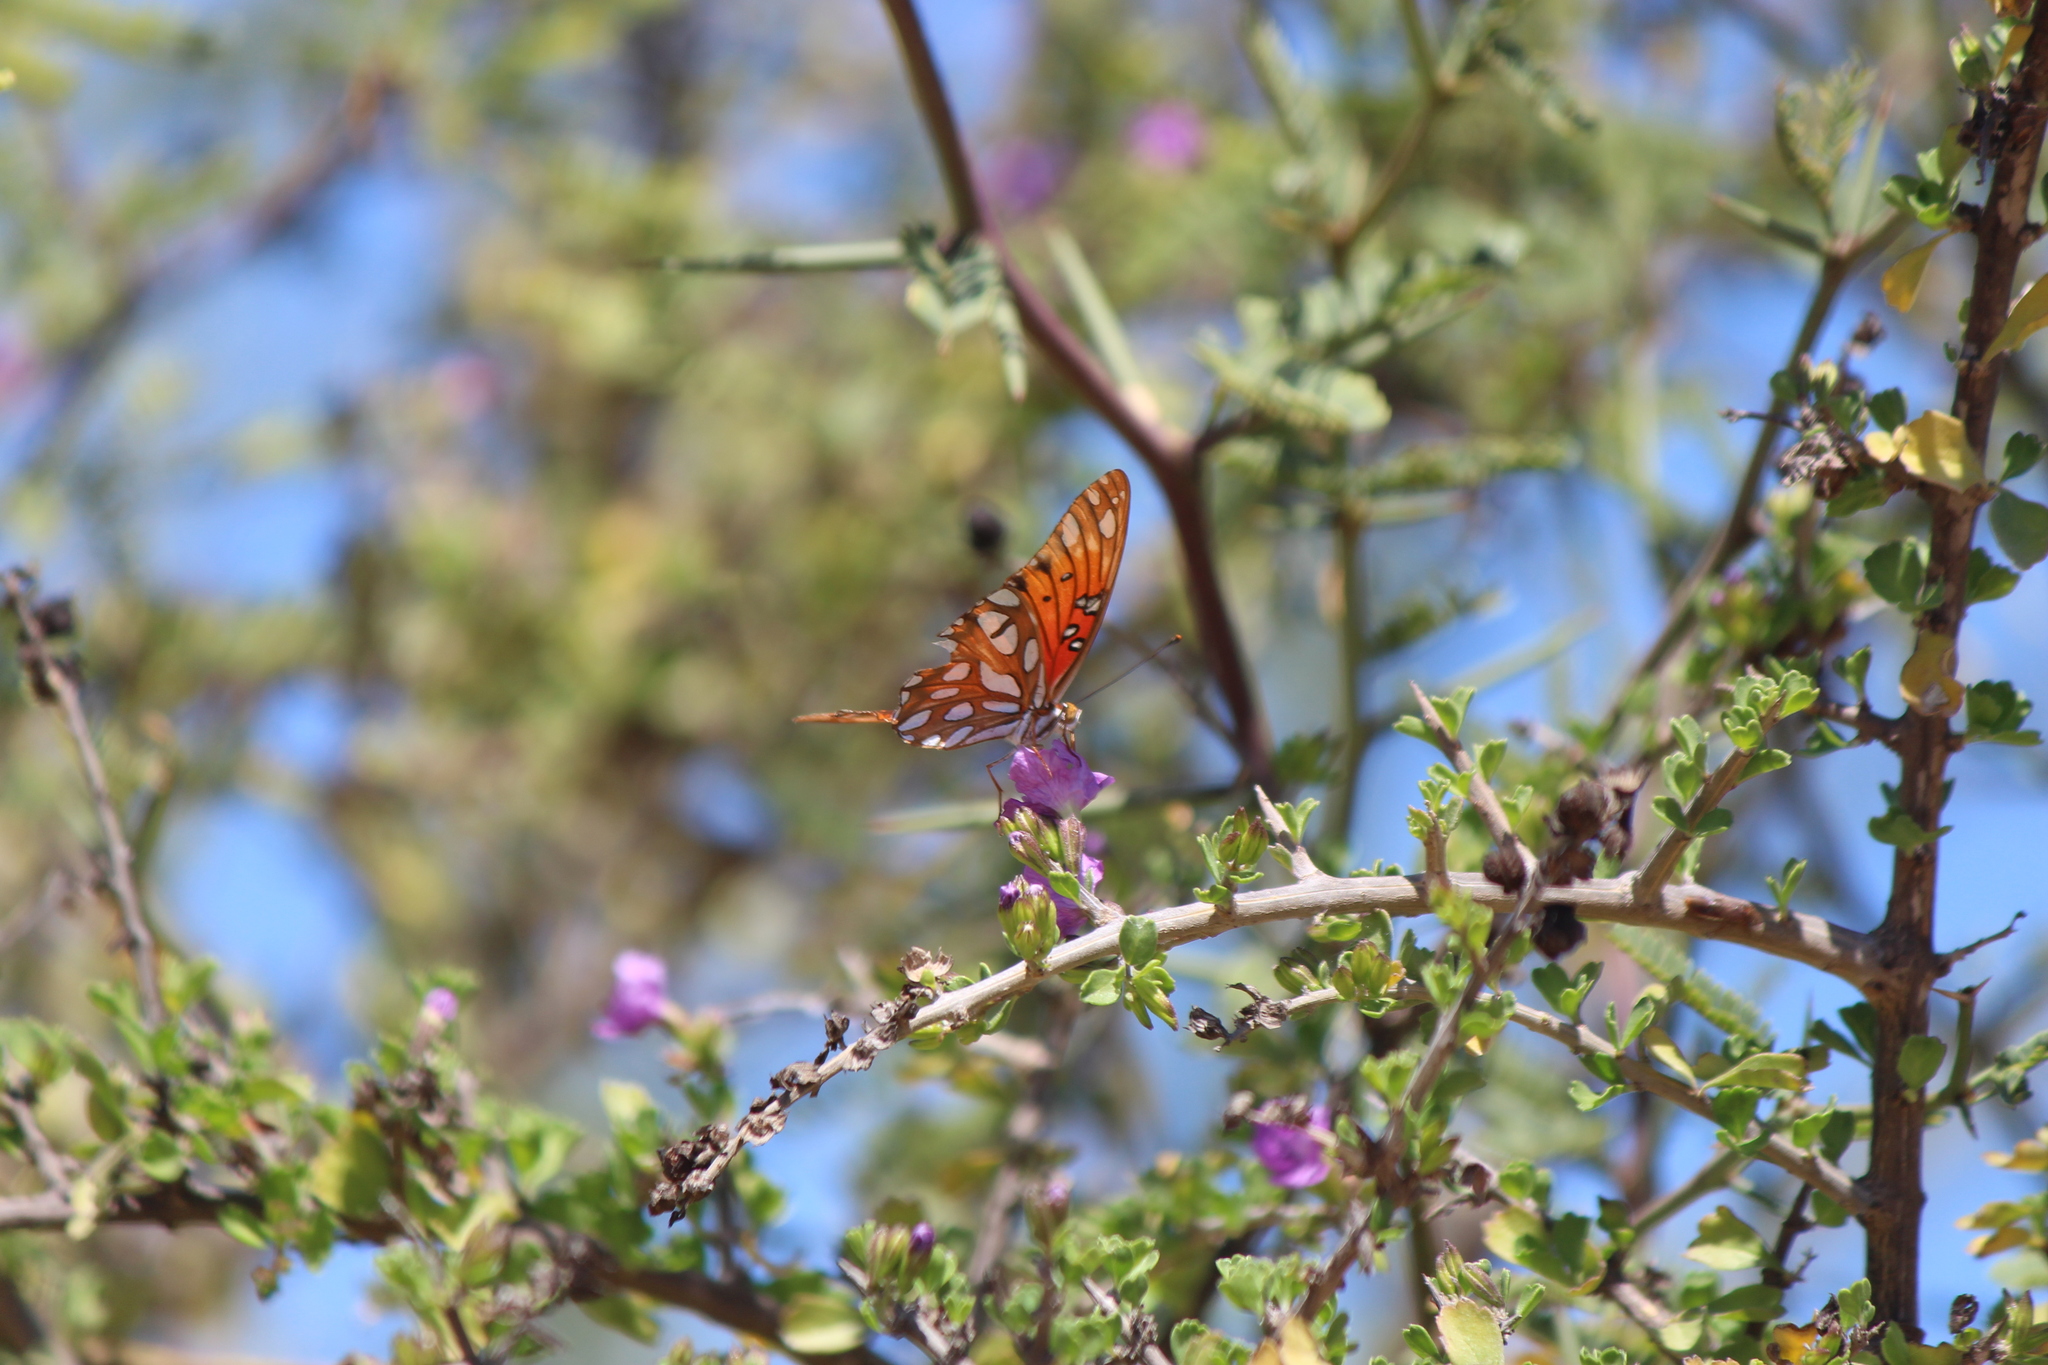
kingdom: Animalia
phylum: Arthropoda
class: Insecta
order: Lepidoptera
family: Nymphalidae
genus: Dione
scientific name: Dione vanillae
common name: Gulf fritillary
